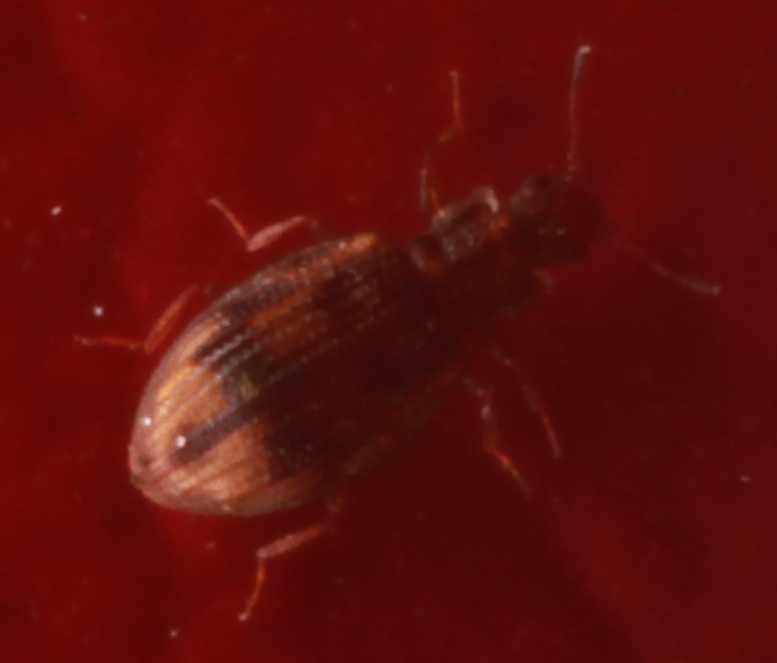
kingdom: Animalia
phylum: Arthropoda
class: Insecta
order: Coleoptera
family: Latridiidae
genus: Cartodere
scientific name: Cartodere bifasciata
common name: Plaster beetle
